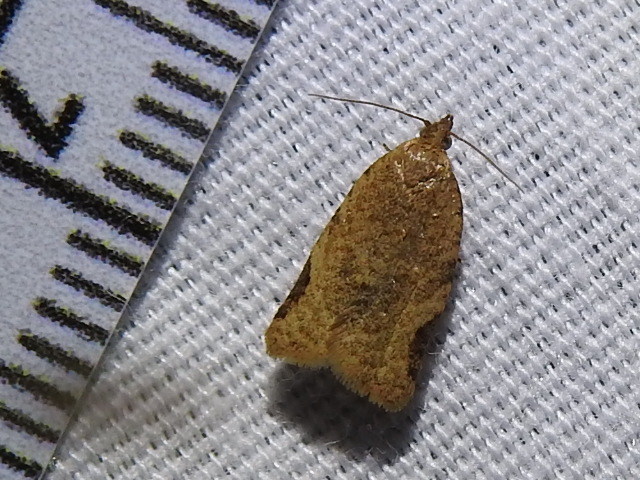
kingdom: Animalia
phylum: Arthropoda
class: Insecta
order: Lepidoptera
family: Tortricidae
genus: Clepsis
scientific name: Clepsis virescana
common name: Greenish apple moth
